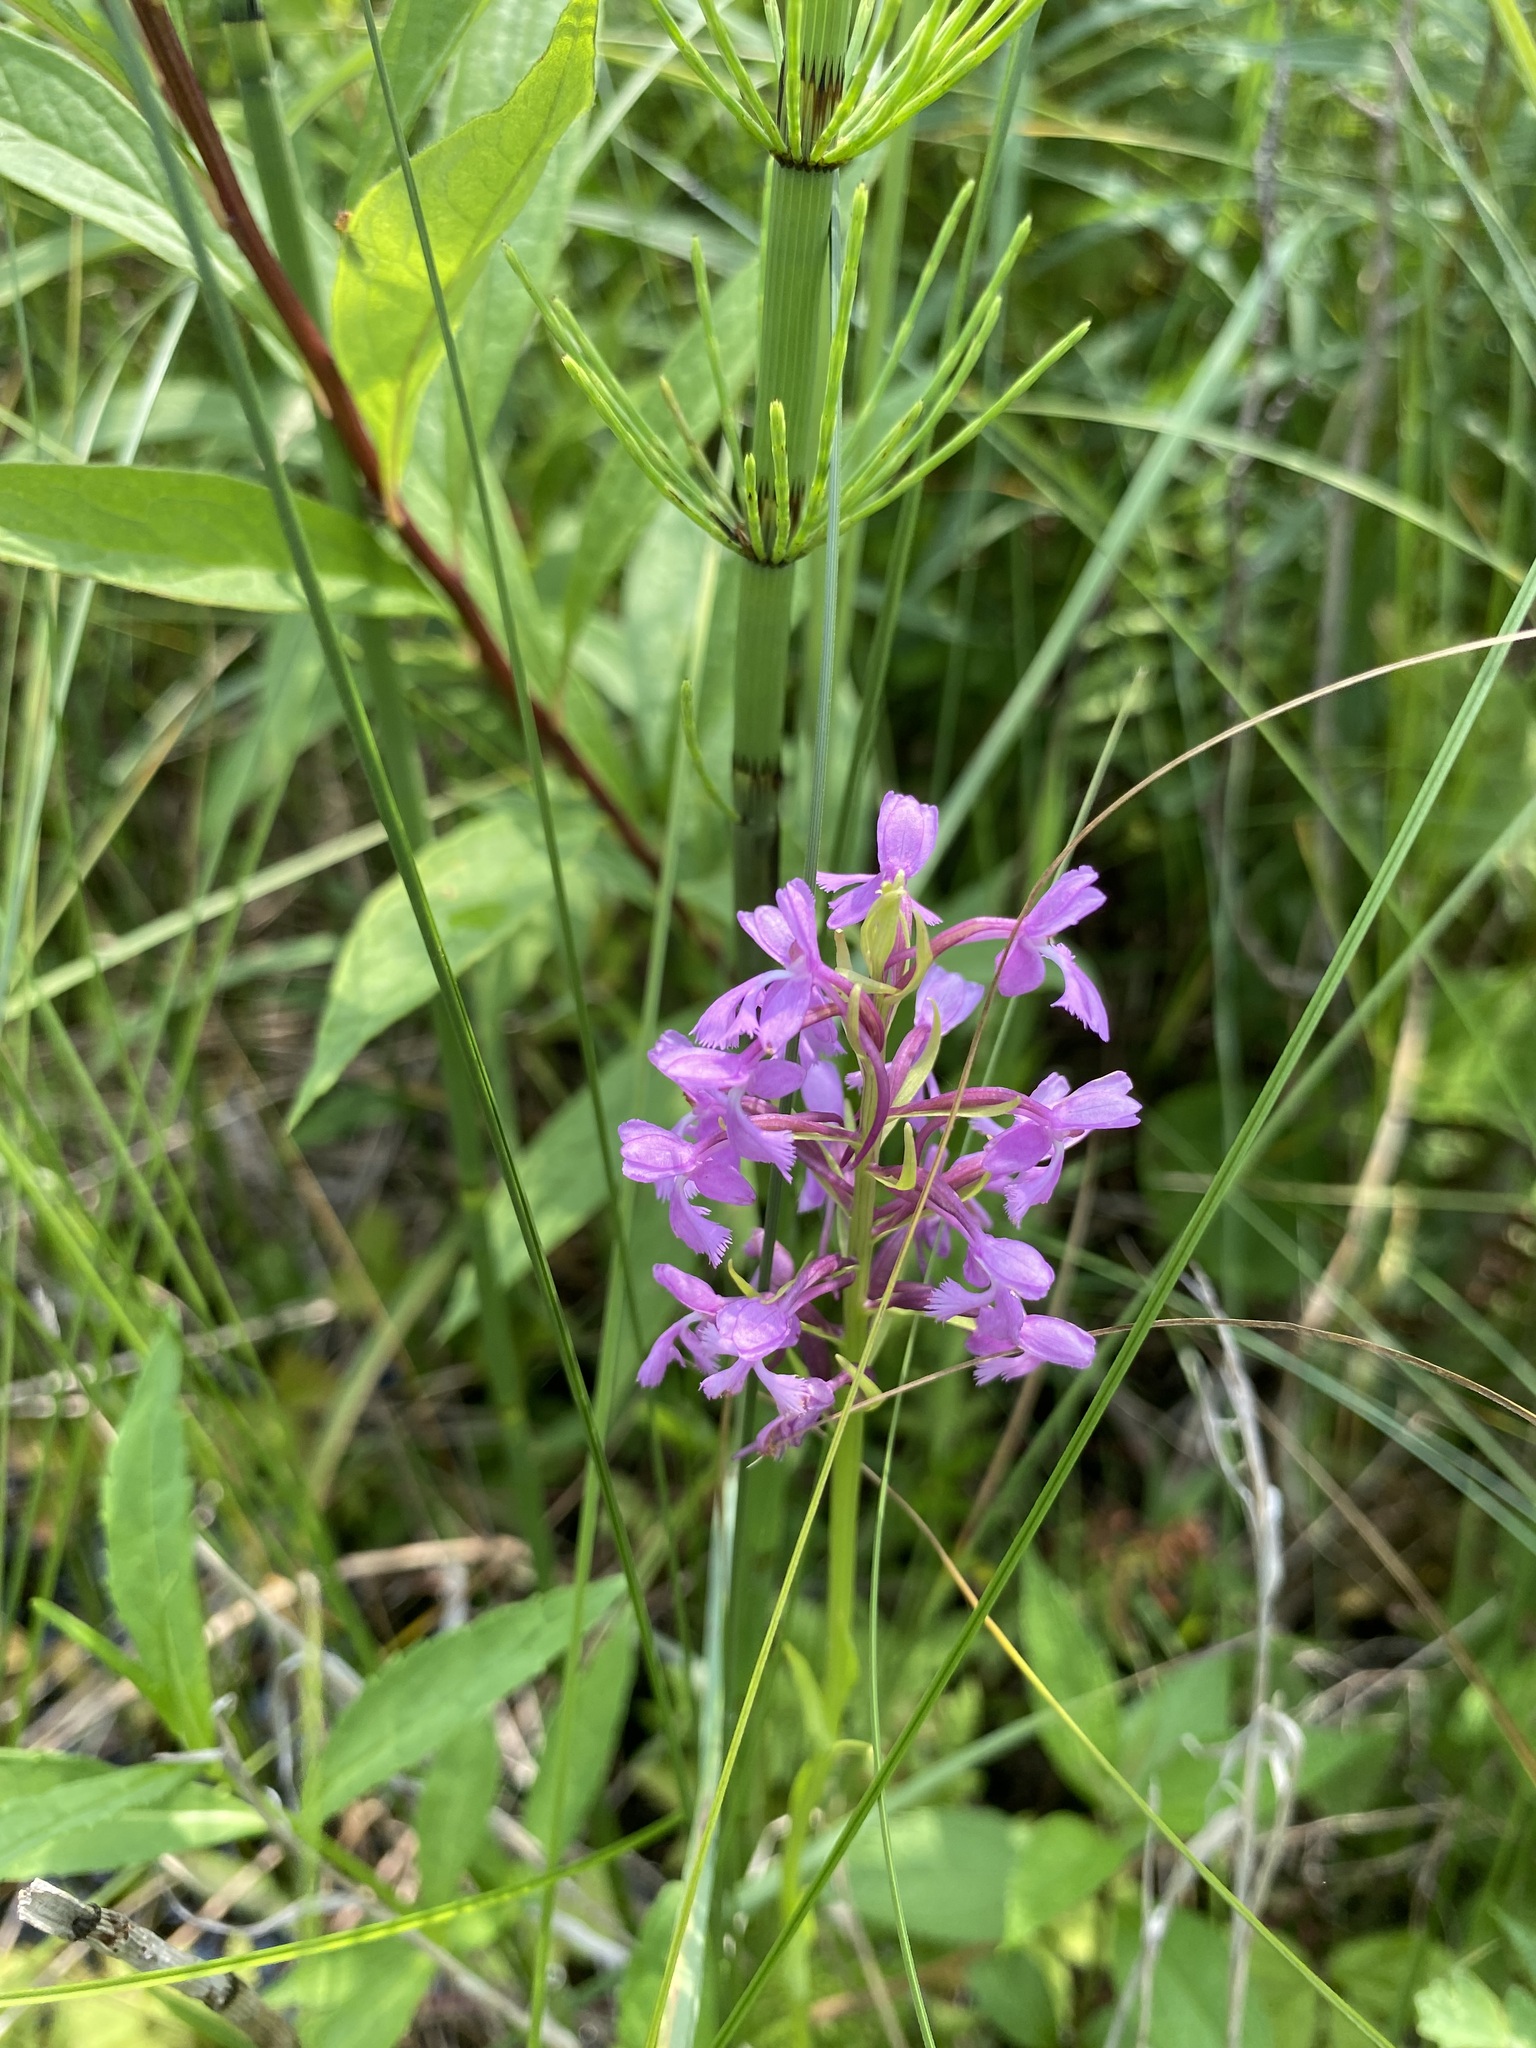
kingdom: Plantae
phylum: Tracheophyta
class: Liliopsida
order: Asparagales
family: Orchidaceae
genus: Platanthera
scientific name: Platanthera psycodes
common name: Lesser purple fringed orchid
